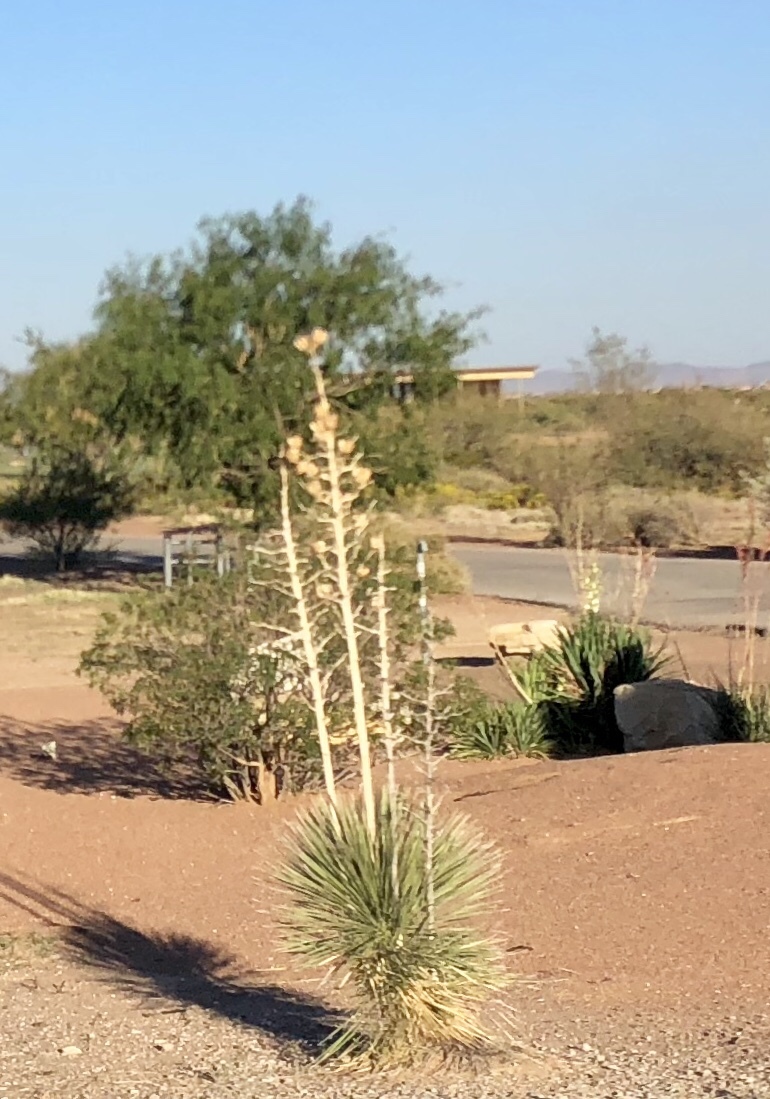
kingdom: Plantae
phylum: Tracheophyta
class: Liliopsida
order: Asparagales
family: Asparagaceae
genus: Yucca
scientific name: Yucca elata
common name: Palmella
